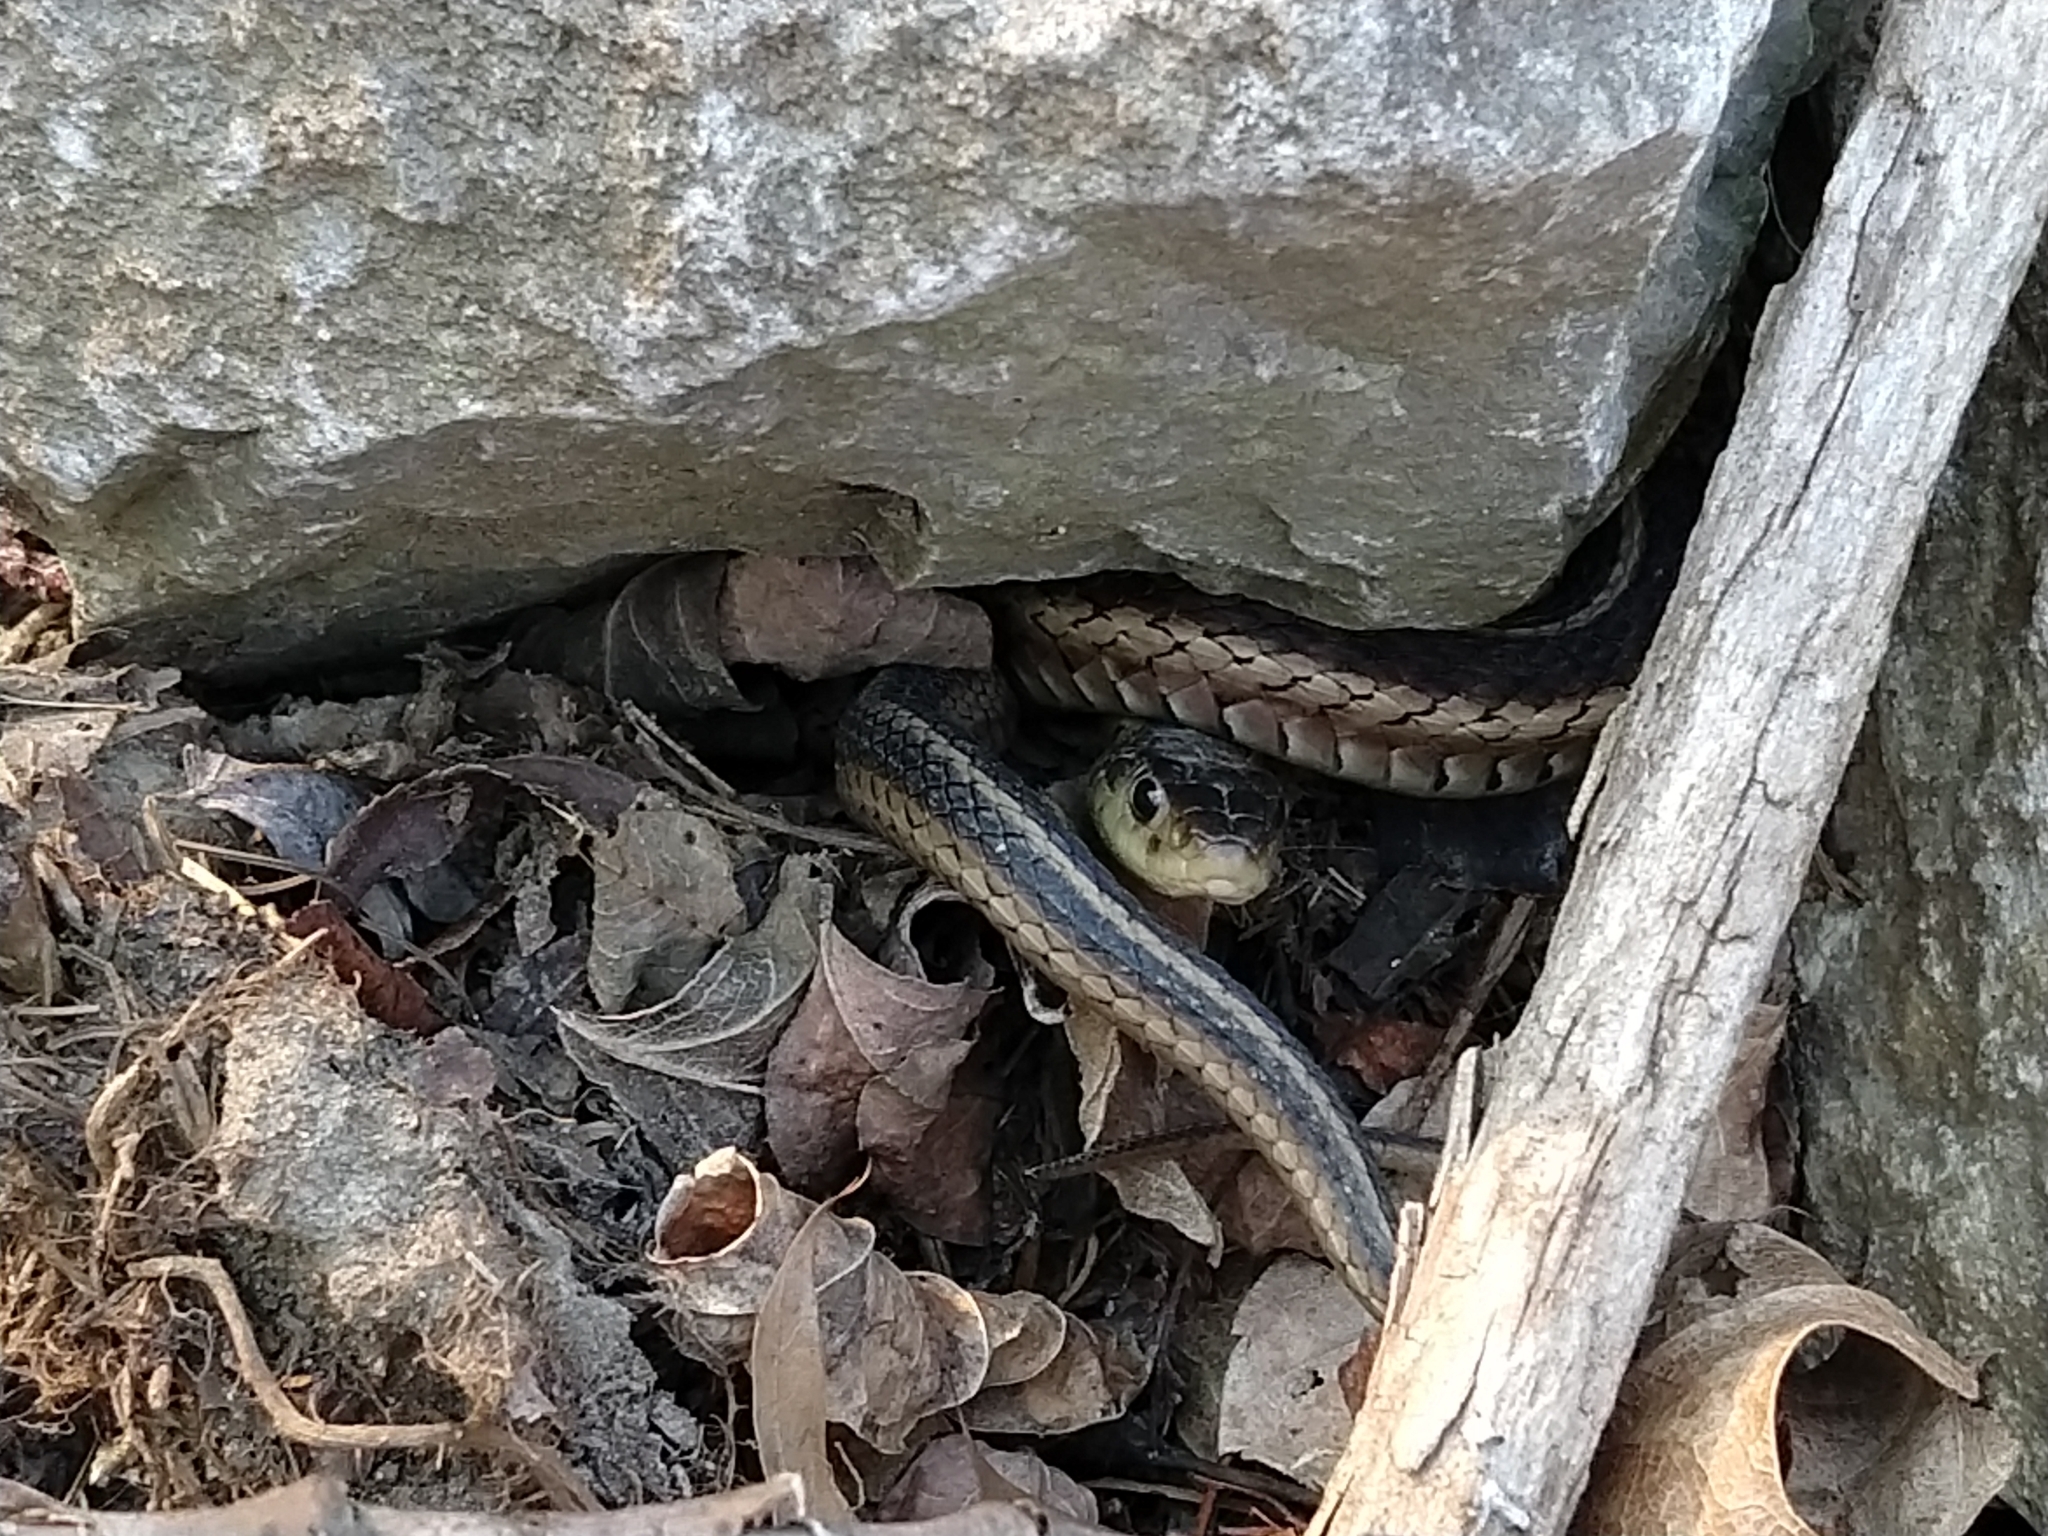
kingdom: Animalia
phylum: Chordata
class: Squamata
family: Colubridae
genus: Thamnophis
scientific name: Thamnophis sirtalis
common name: Common garter snake
